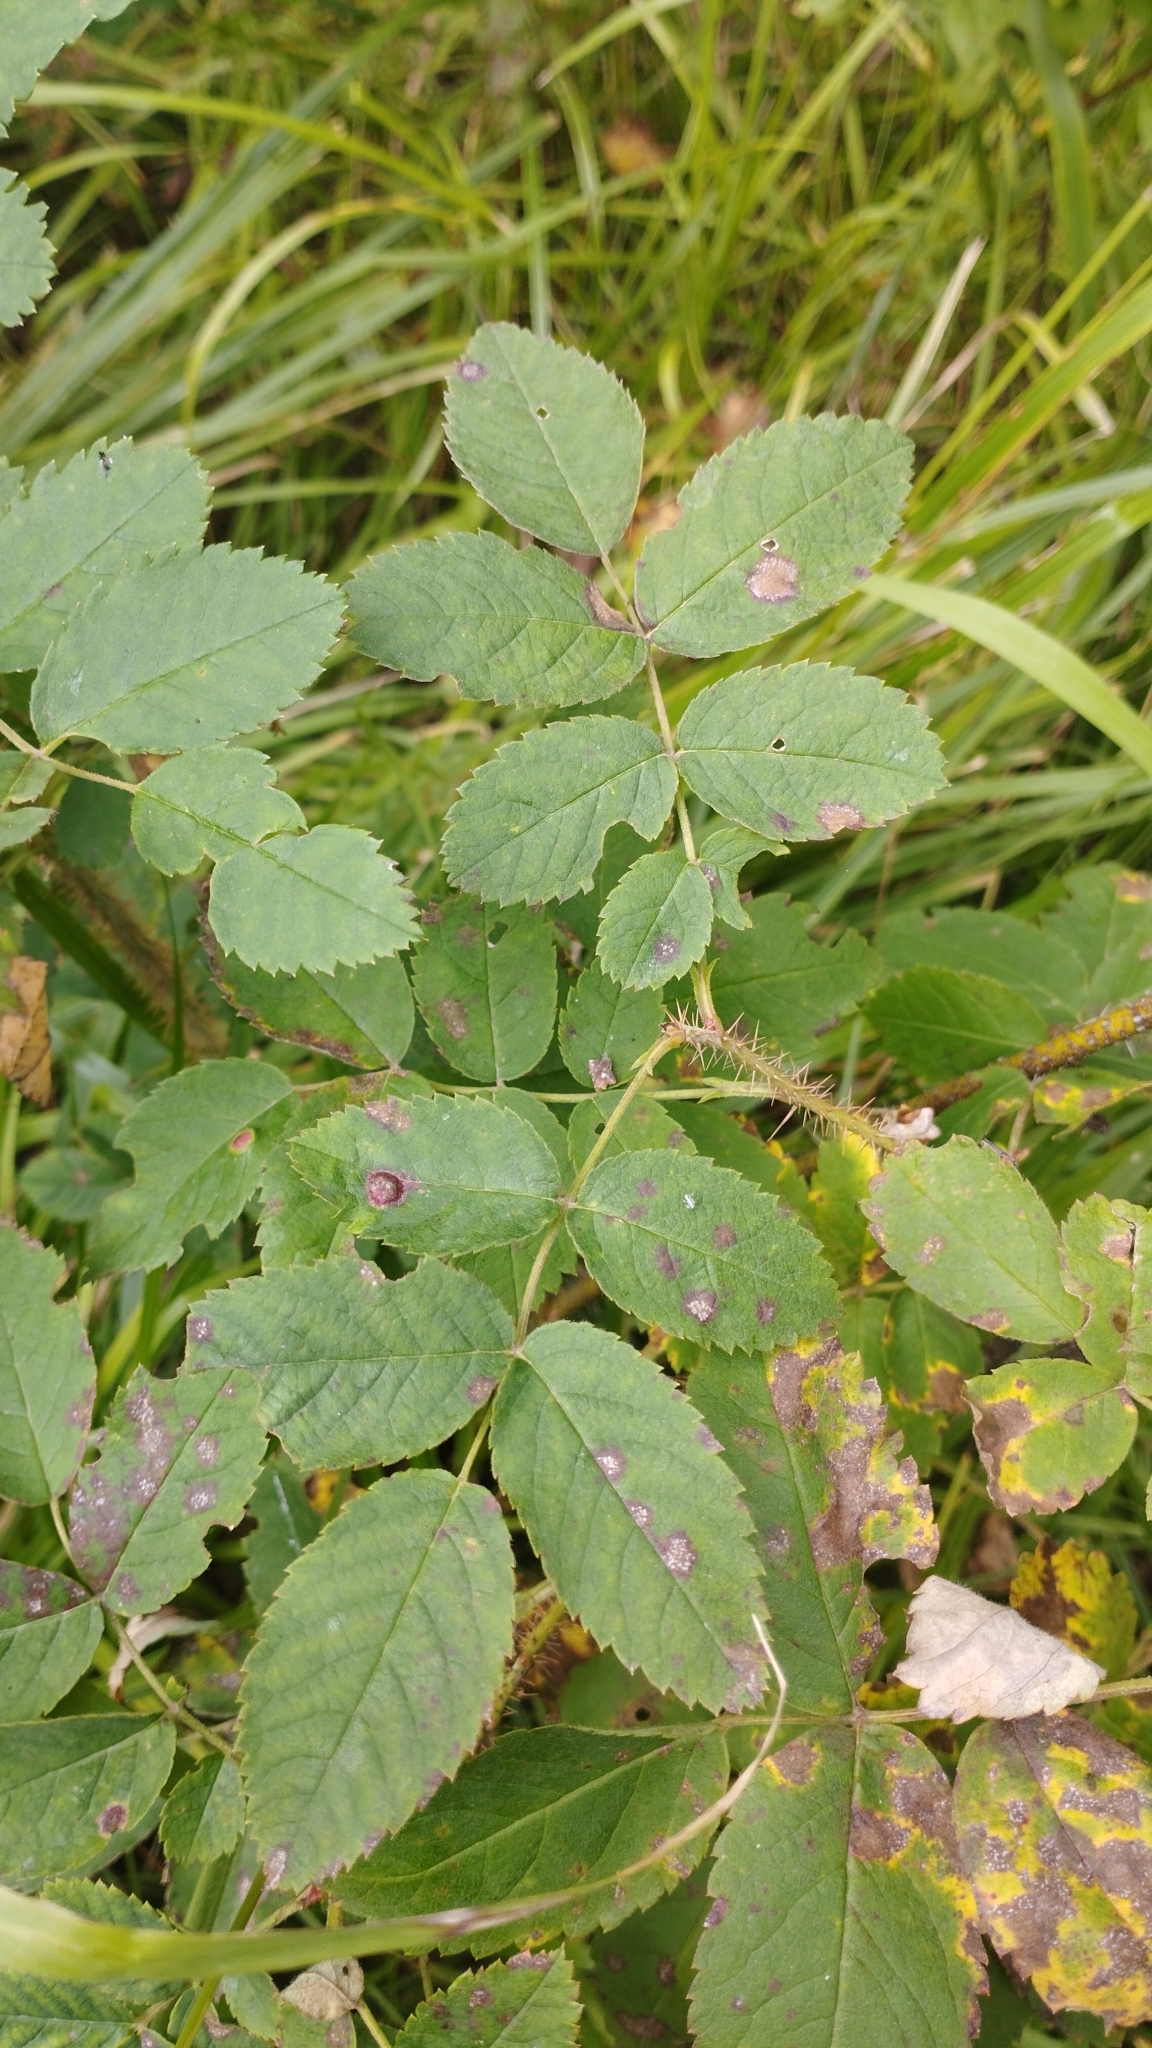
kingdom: Plantae
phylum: Tracheophyta
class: Magnoliopsida
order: Rosales
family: Rosaceae
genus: Rosa
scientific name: Rosa acicularis
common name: Prickly rose
